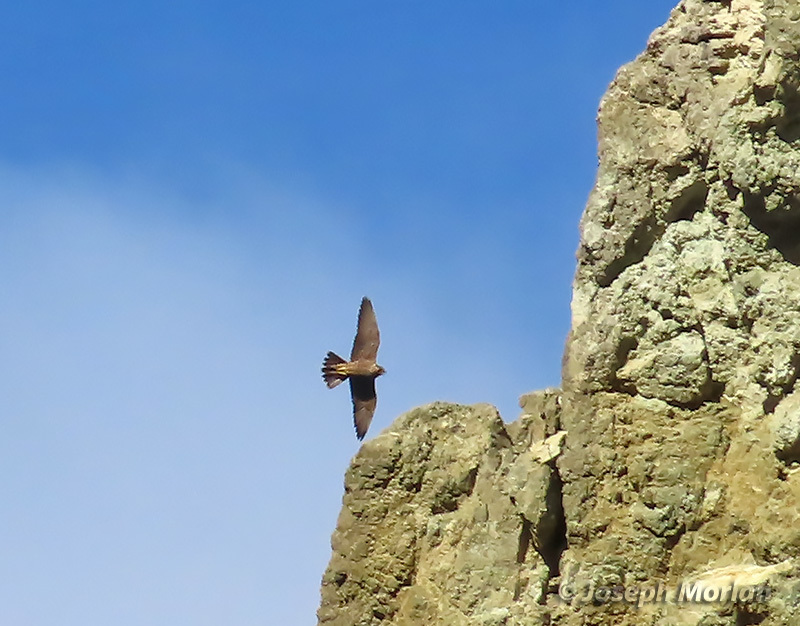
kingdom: Animalia
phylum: Chordata
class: Aves
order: Falconiformes
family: Falconidae
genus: Falco
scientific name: Falco peregrinus
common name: Peregrine falcon
